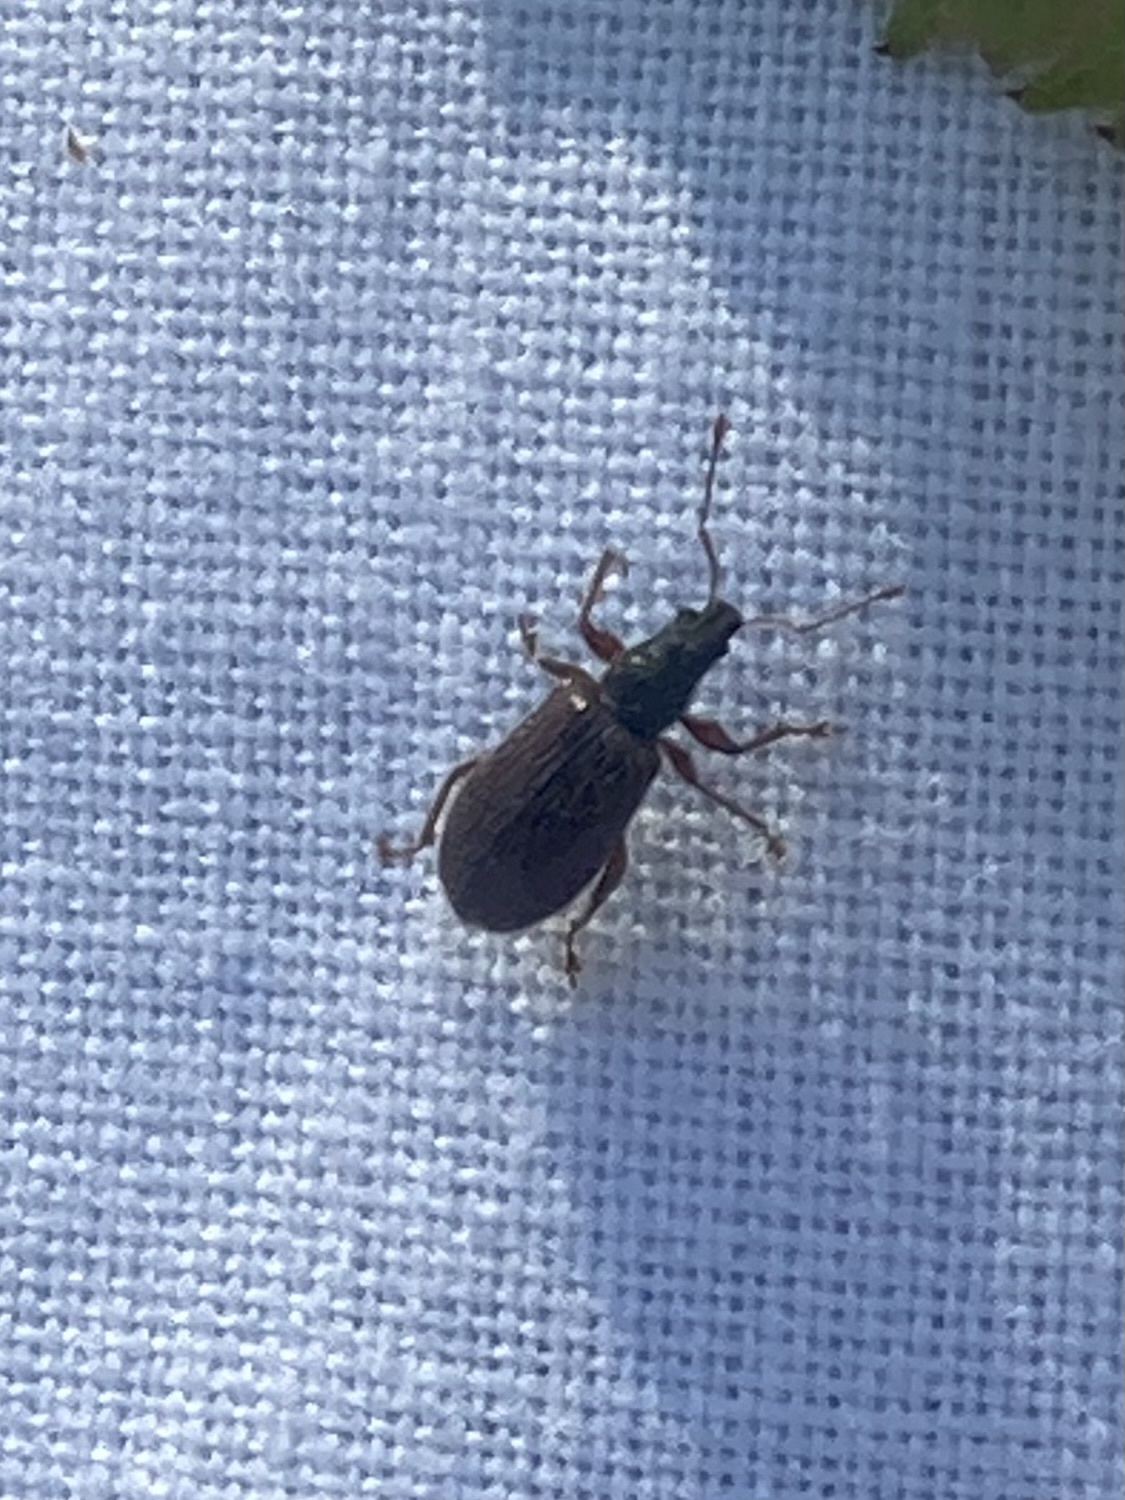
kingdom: Animalia
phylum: Arthropoda
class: Insecta
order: Coleoptera
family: Curculionidae
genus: Phyllobius
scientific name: Phyllobius oblongus
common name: Brown leaf weevil
